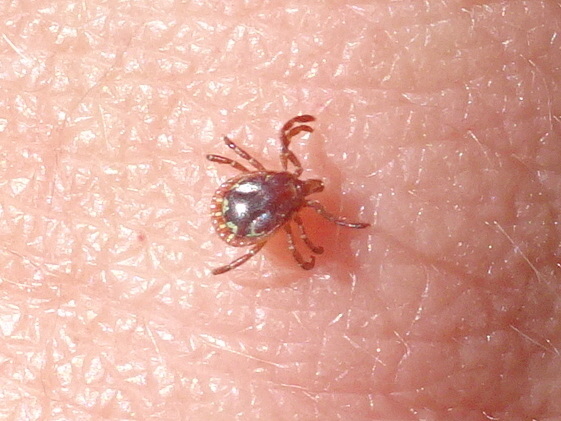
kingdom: Animalia
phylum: Arthropoda
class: Arachnida
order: Ixodida
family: Ixodidae
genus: Amblyomma
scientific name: Amblyomma americanum
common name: Lone star tick
